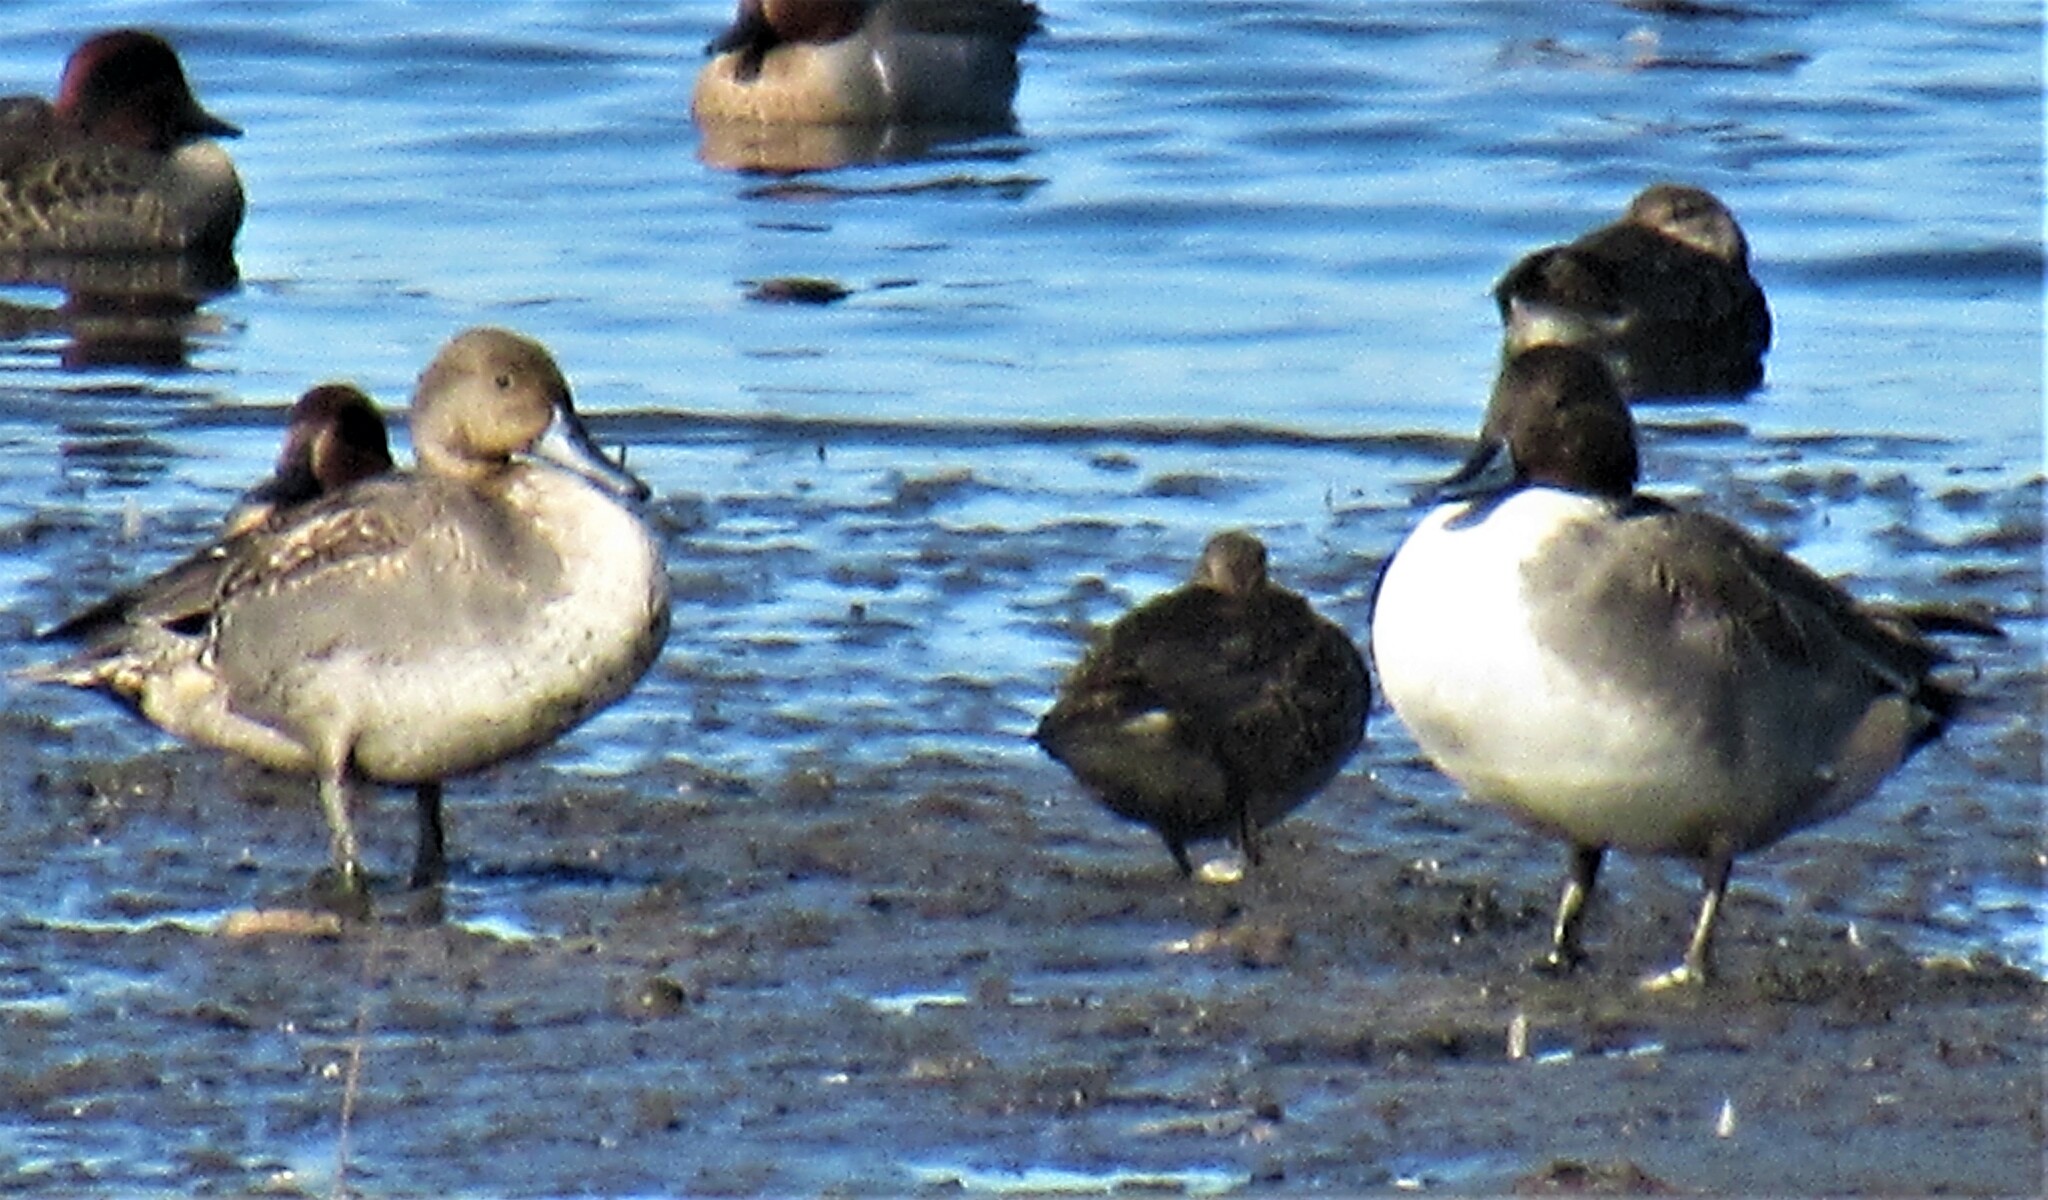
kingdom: Animalia
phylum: Chordata
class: Aves
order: Anseriformes
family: Anatidae
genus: Anas
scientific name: Anas acuta
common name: Northern pintail
